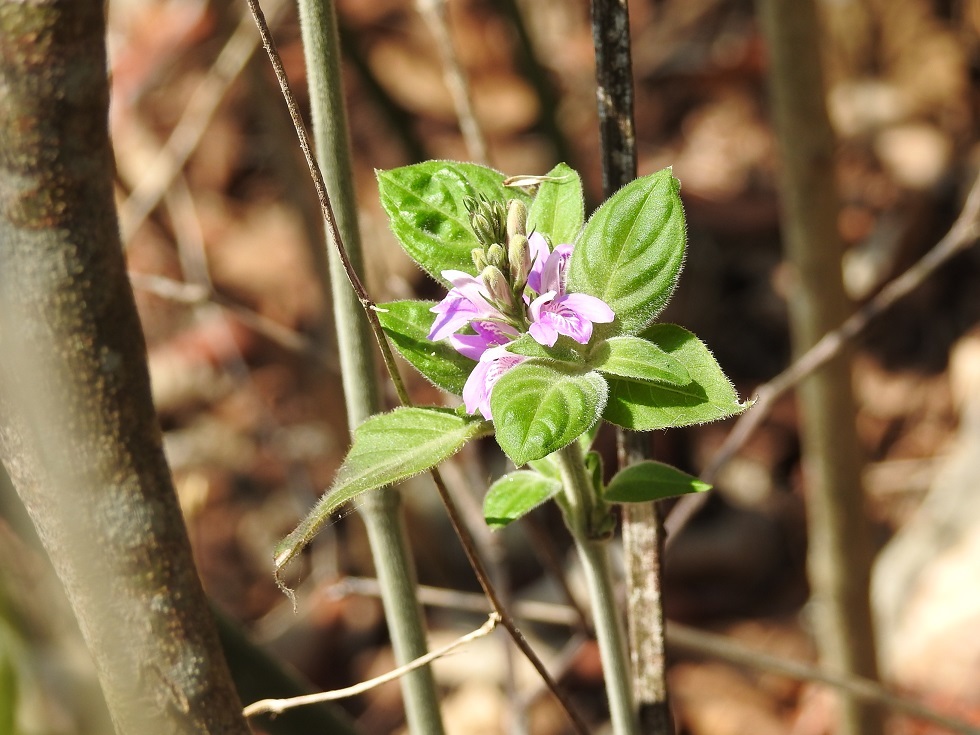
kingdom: Plantae
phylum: Tracheophyta
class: Magnoliopsida
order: Lamiales
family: Acanthaceae
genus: Dianthera
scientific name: Dianthera breviflora
